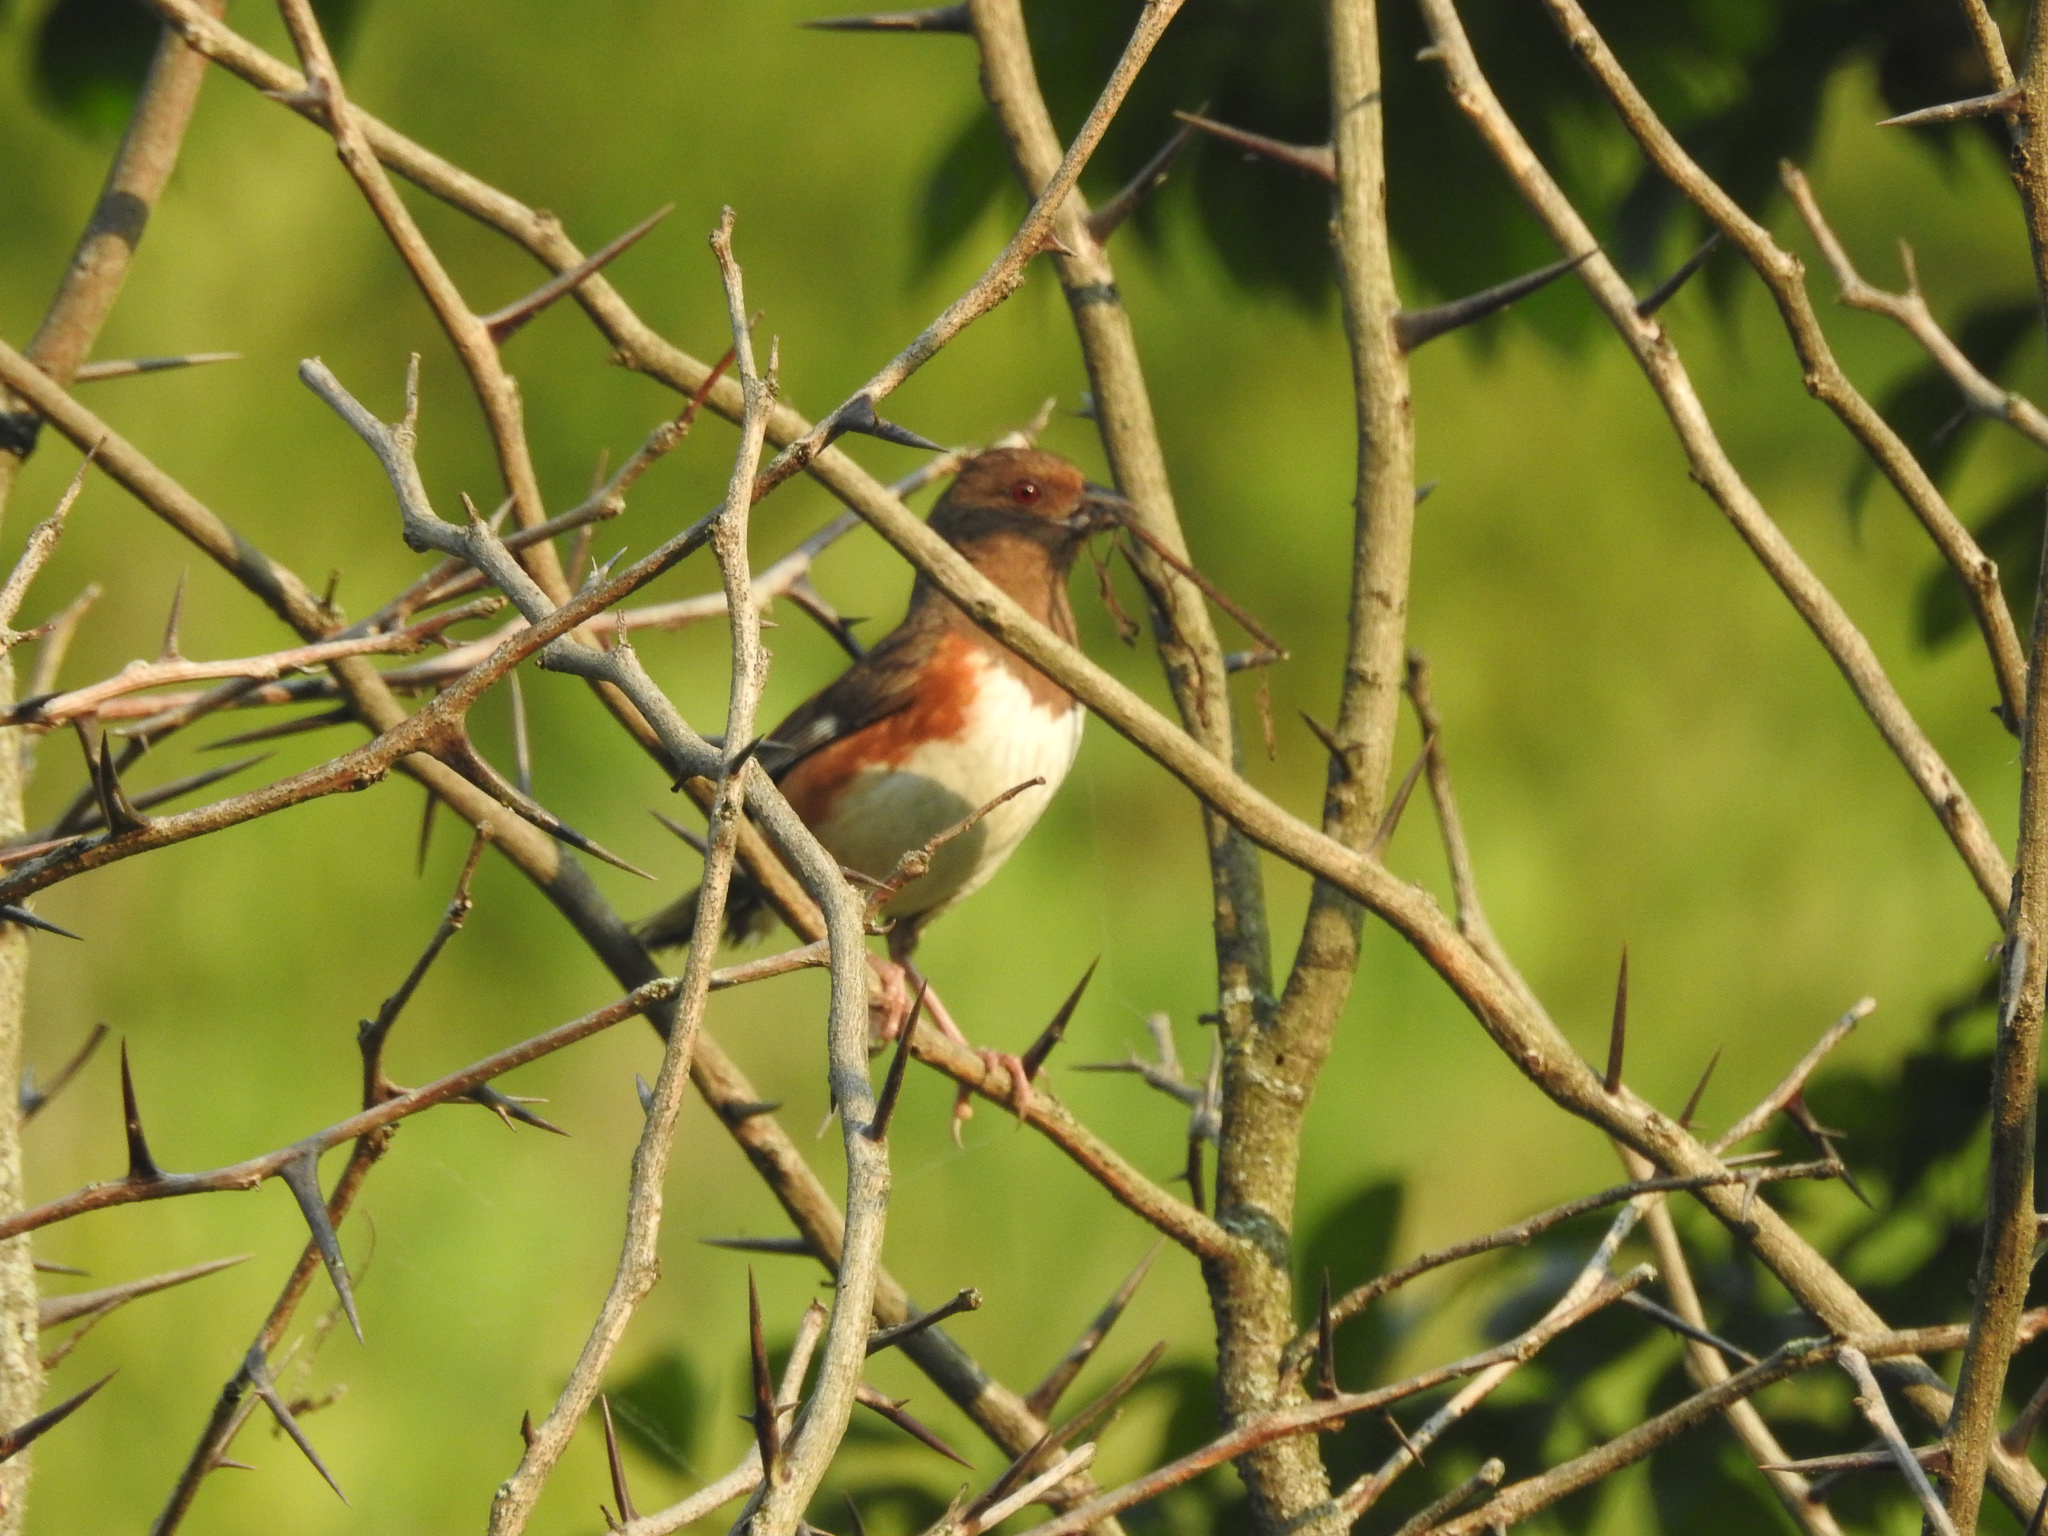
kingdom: Animalia
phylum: Chordata
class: Aves
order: Passeriformes
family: Passerellidae
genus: Pipilo
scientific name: Pipilo erythrophthalmus
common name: Eastern towhee
